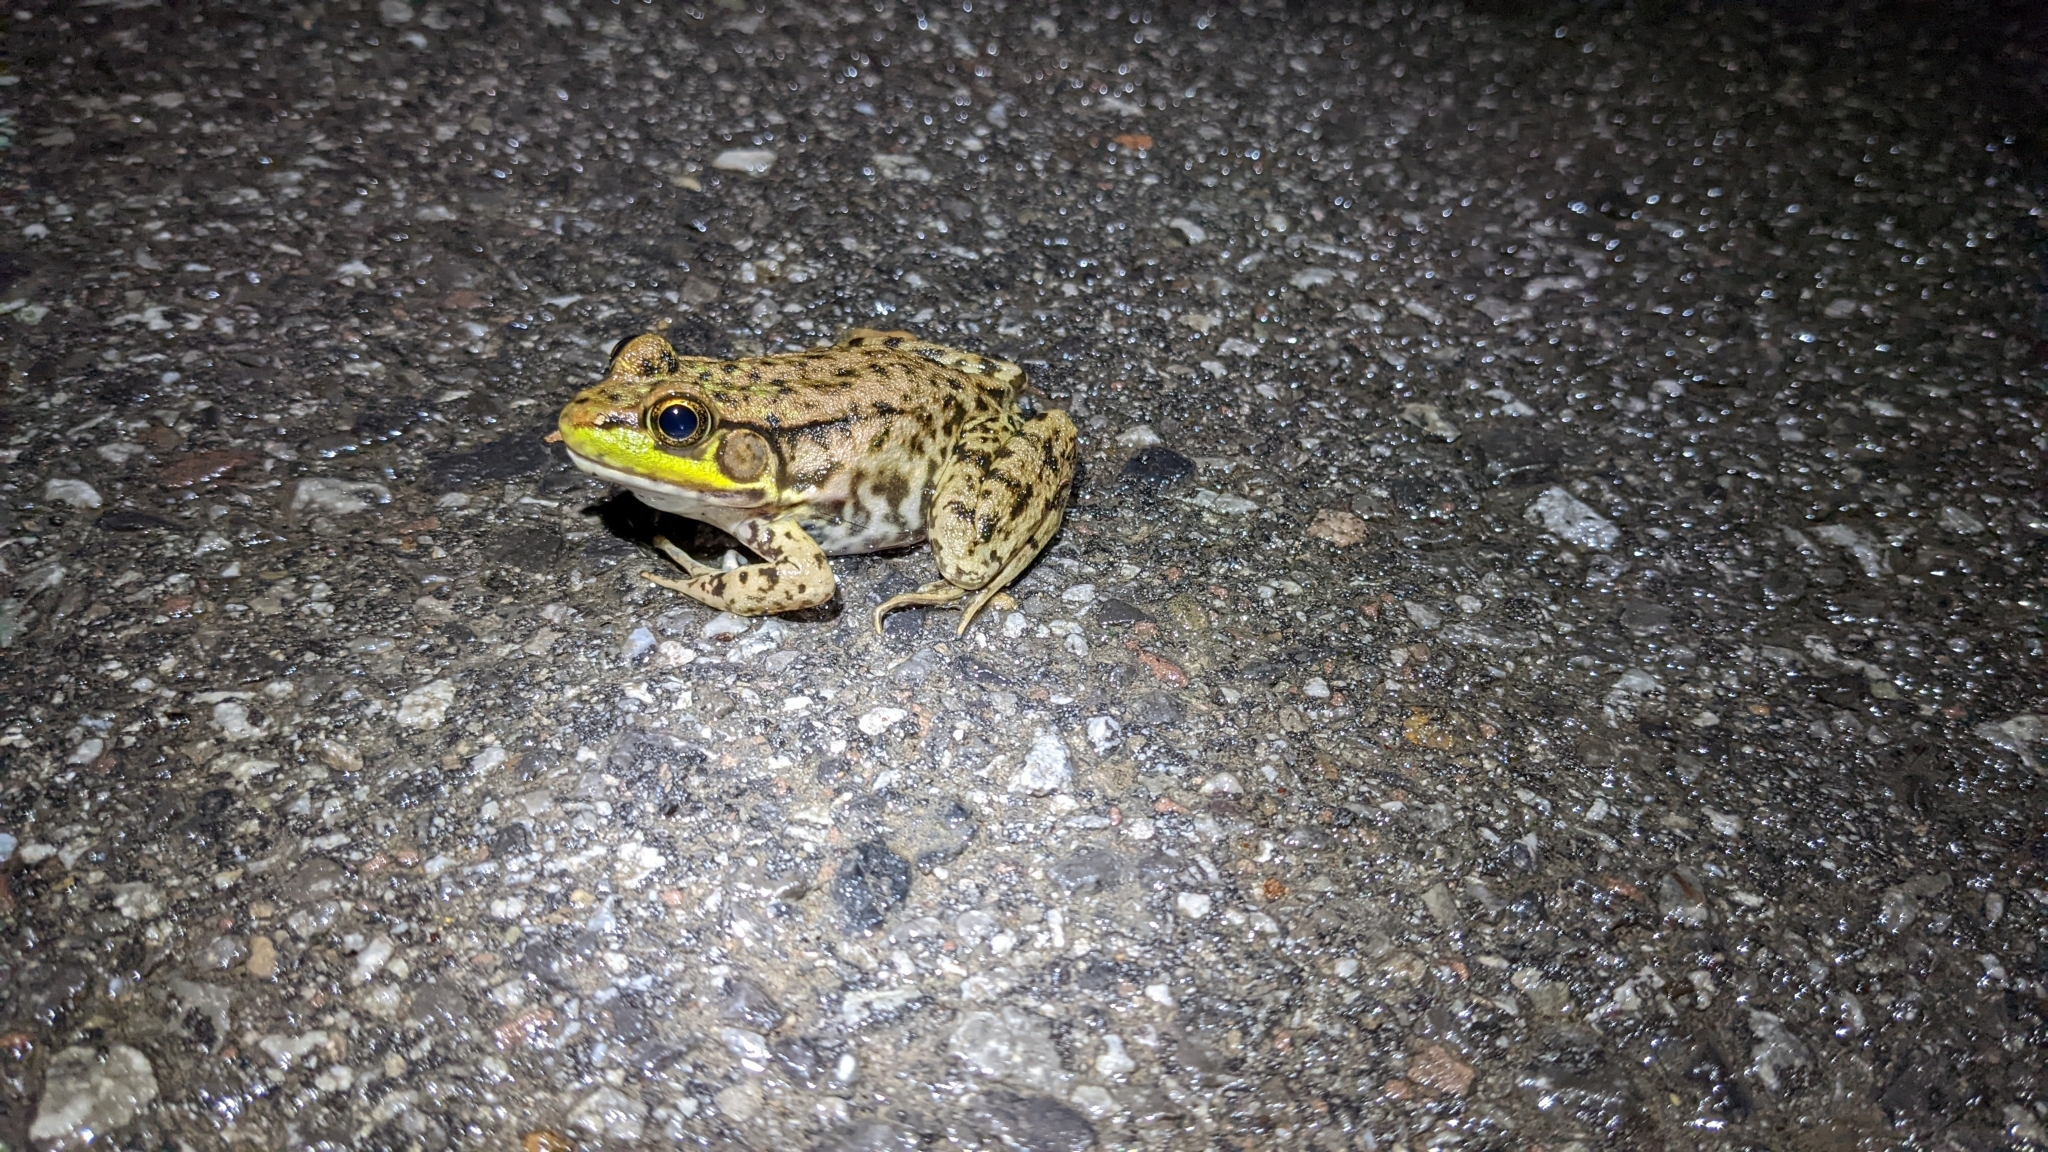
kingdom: Animalia
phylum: Chordata
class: Amphibia
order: Anura
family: Ranidae
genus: Lithobates
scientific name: Lithobates clamitans
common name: Green frog
